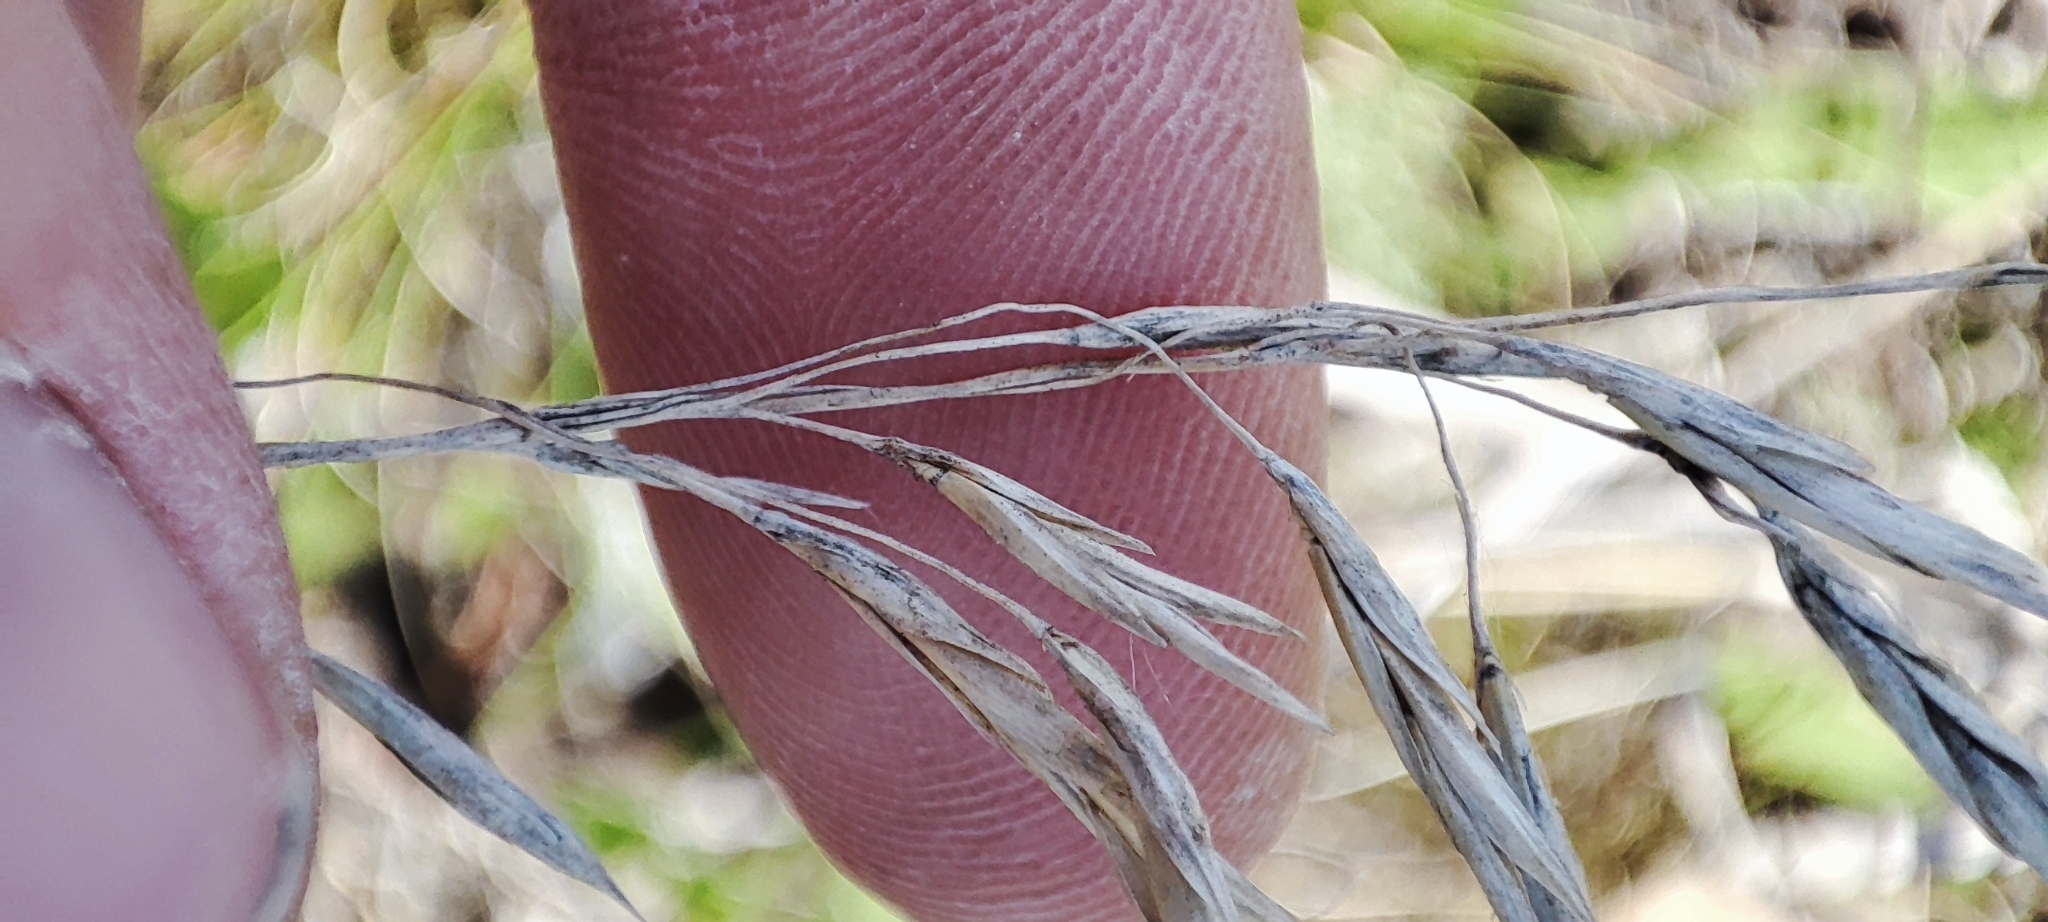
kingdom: Plantae
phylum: Tracheophyta
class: Liliopsida
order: Poales
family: Poaceae
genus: Bromus
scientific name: Bromus inermis
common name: Smooth brome
